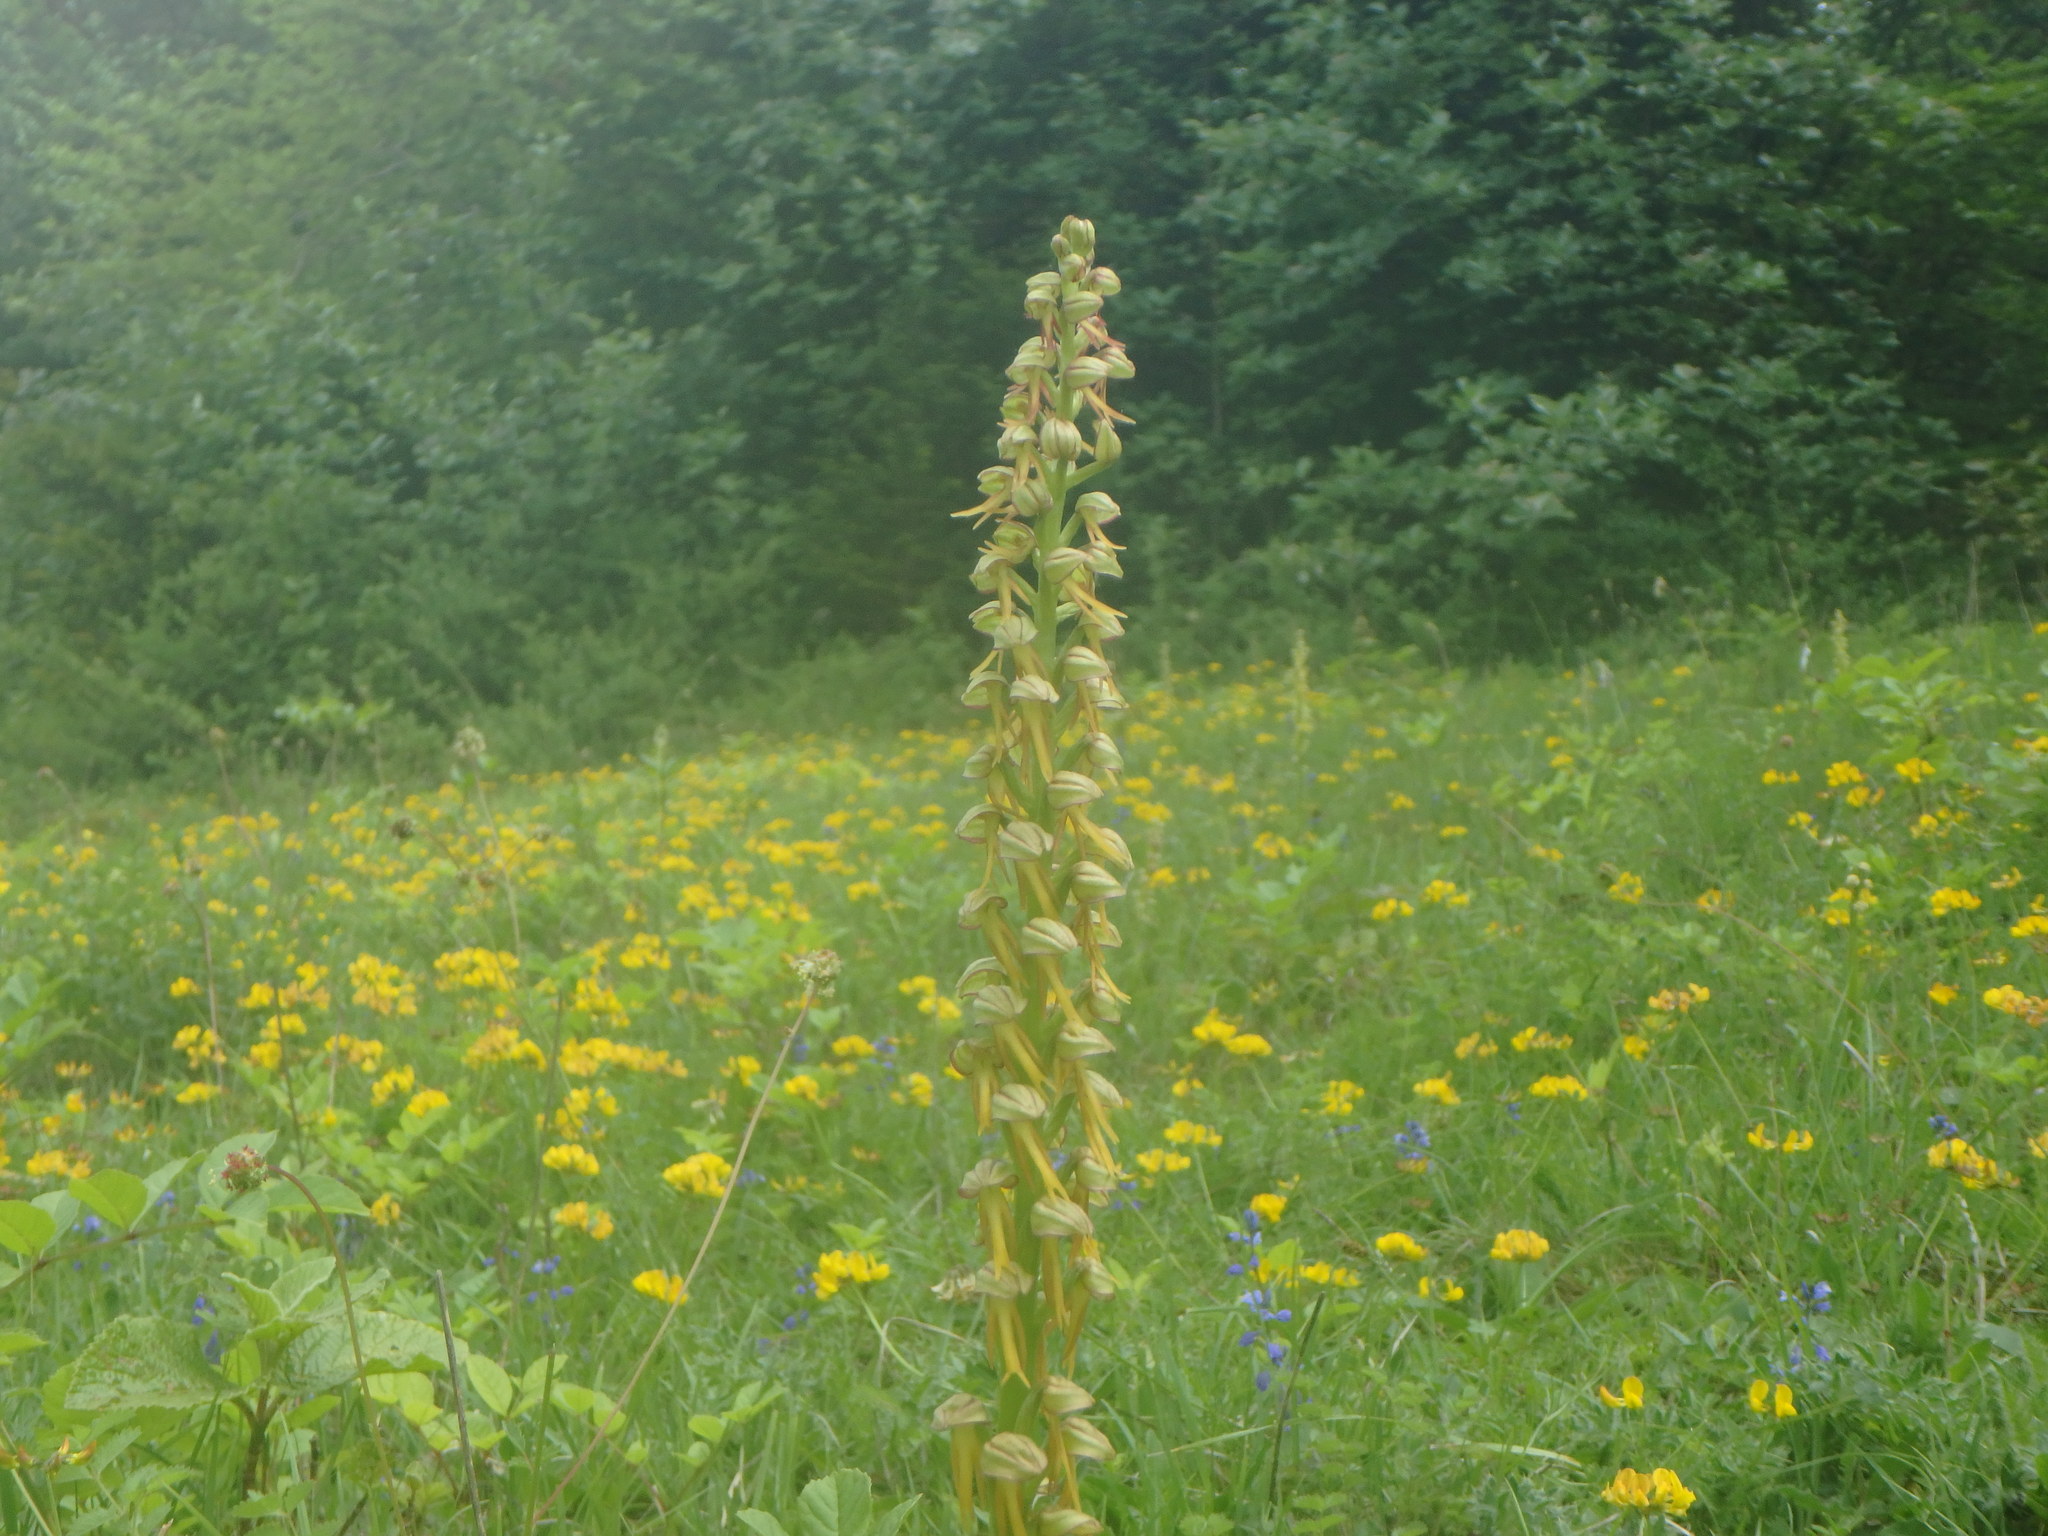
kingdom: Plantae
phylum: Tracheophyta
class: Liliopsida
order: Asparagales
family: Orchidaceae
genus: Orchis
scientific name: Orchis anthropophora
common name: Man orchid
